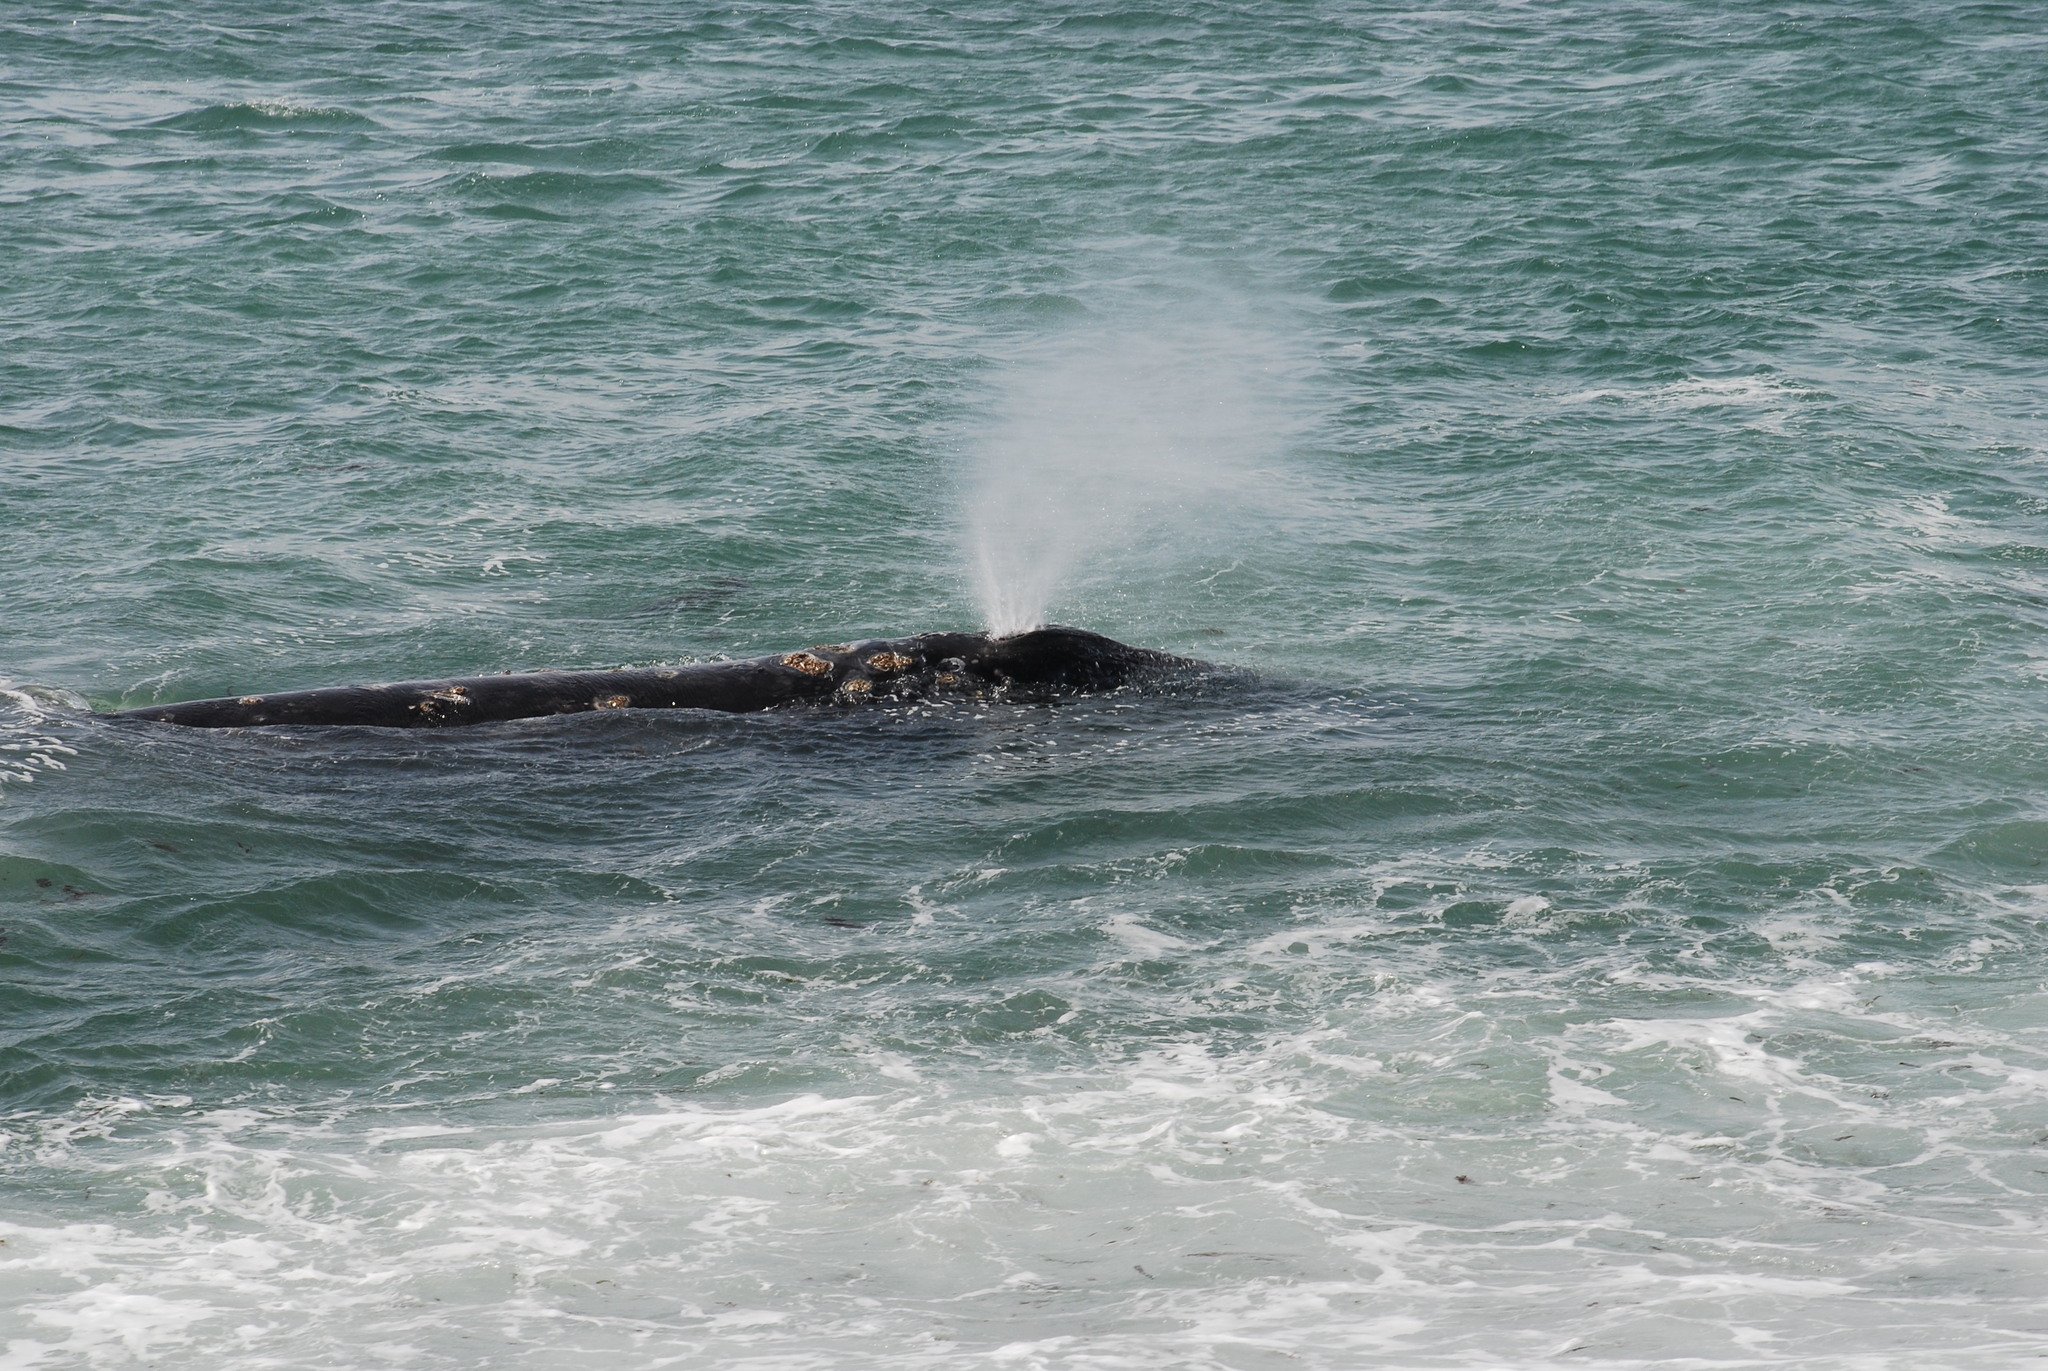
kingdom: Animalia
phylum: Chordata
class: Mammalia
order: Cetacea
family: Eschrichtiidae
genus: Eschrichtius
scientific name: Eschrichtius robustus
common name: Gray whale
